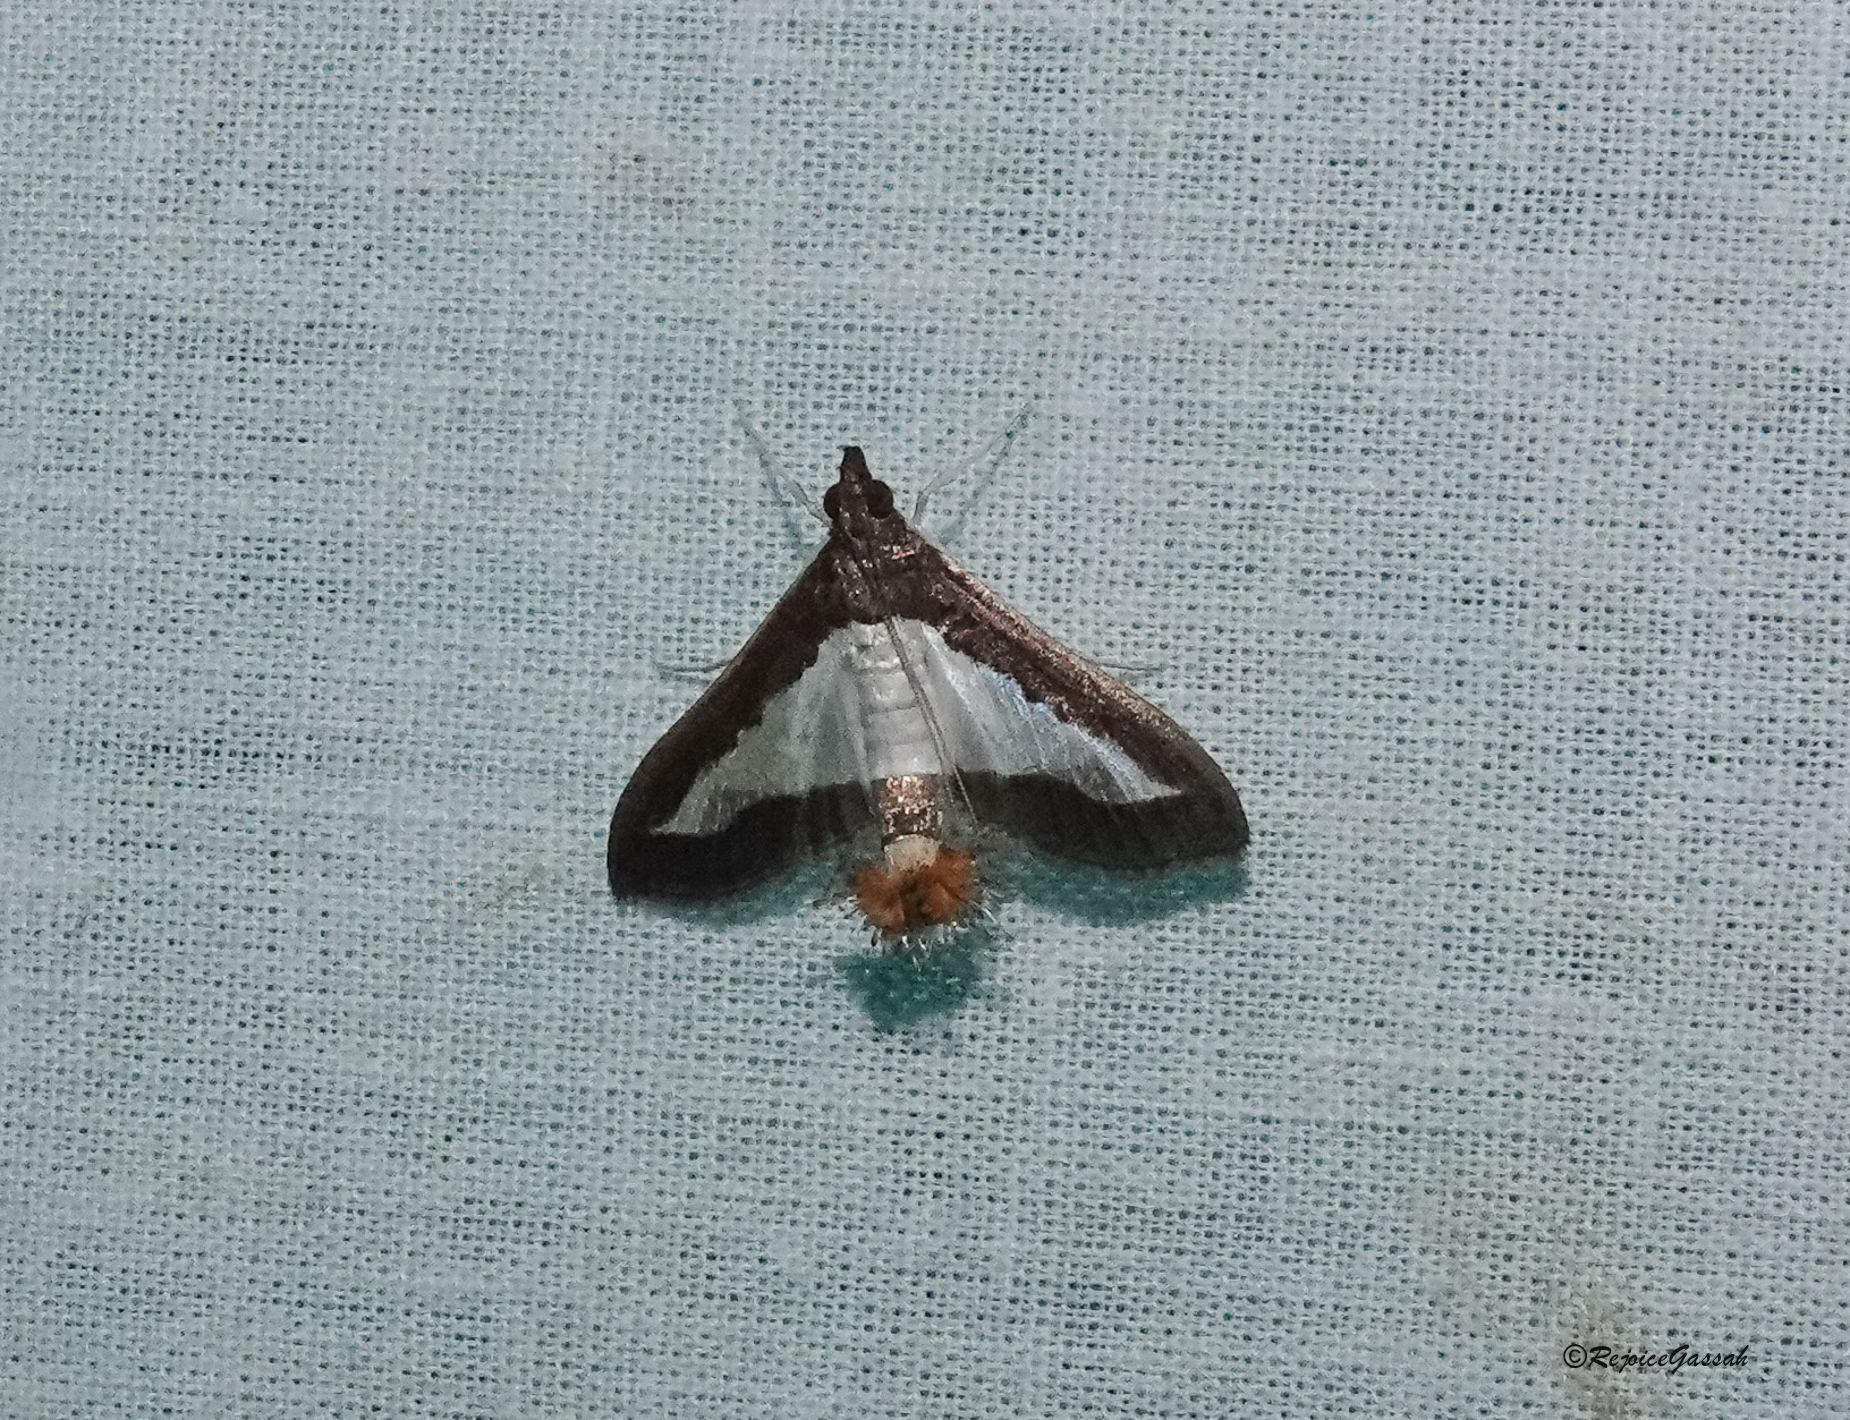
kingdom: Animalia
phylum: Arthropoda
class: Insecta
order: Lepidoptera
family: Crambidae
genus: Diaphania
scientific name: Diaphania indica
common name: Cucumber moth
